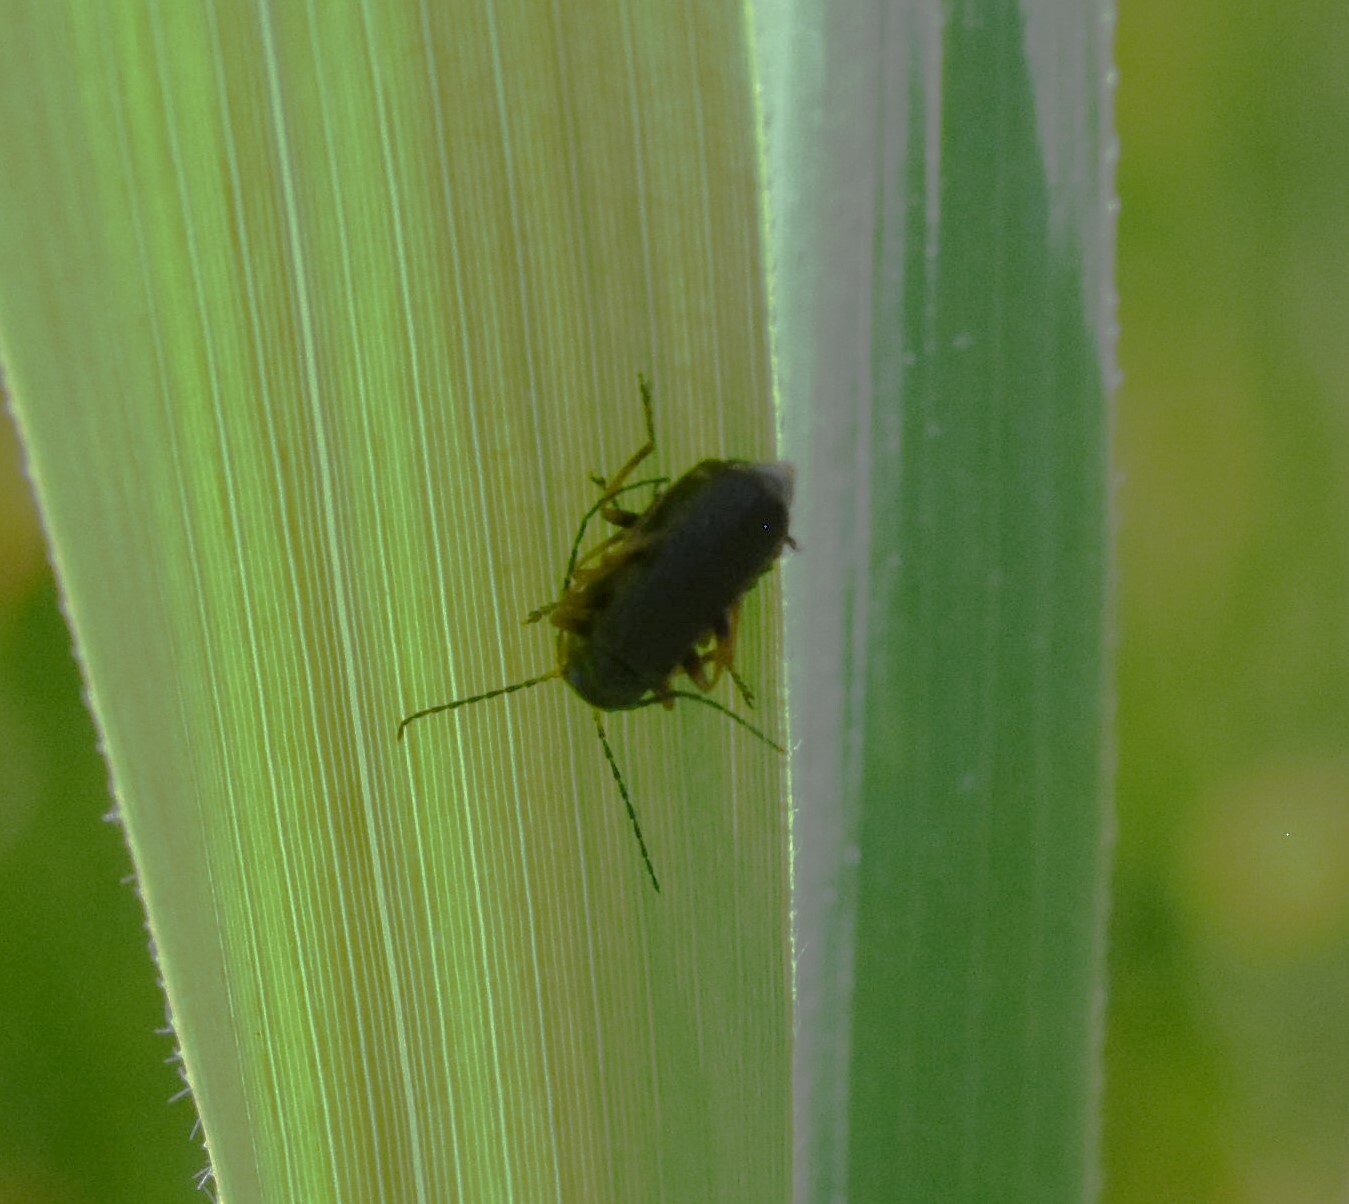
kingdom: Animalia
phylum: Arthropoda
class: Insecta
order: Coleoptera
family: Cantharidae
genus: Cantharis
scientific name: Cantharis flavilabris
